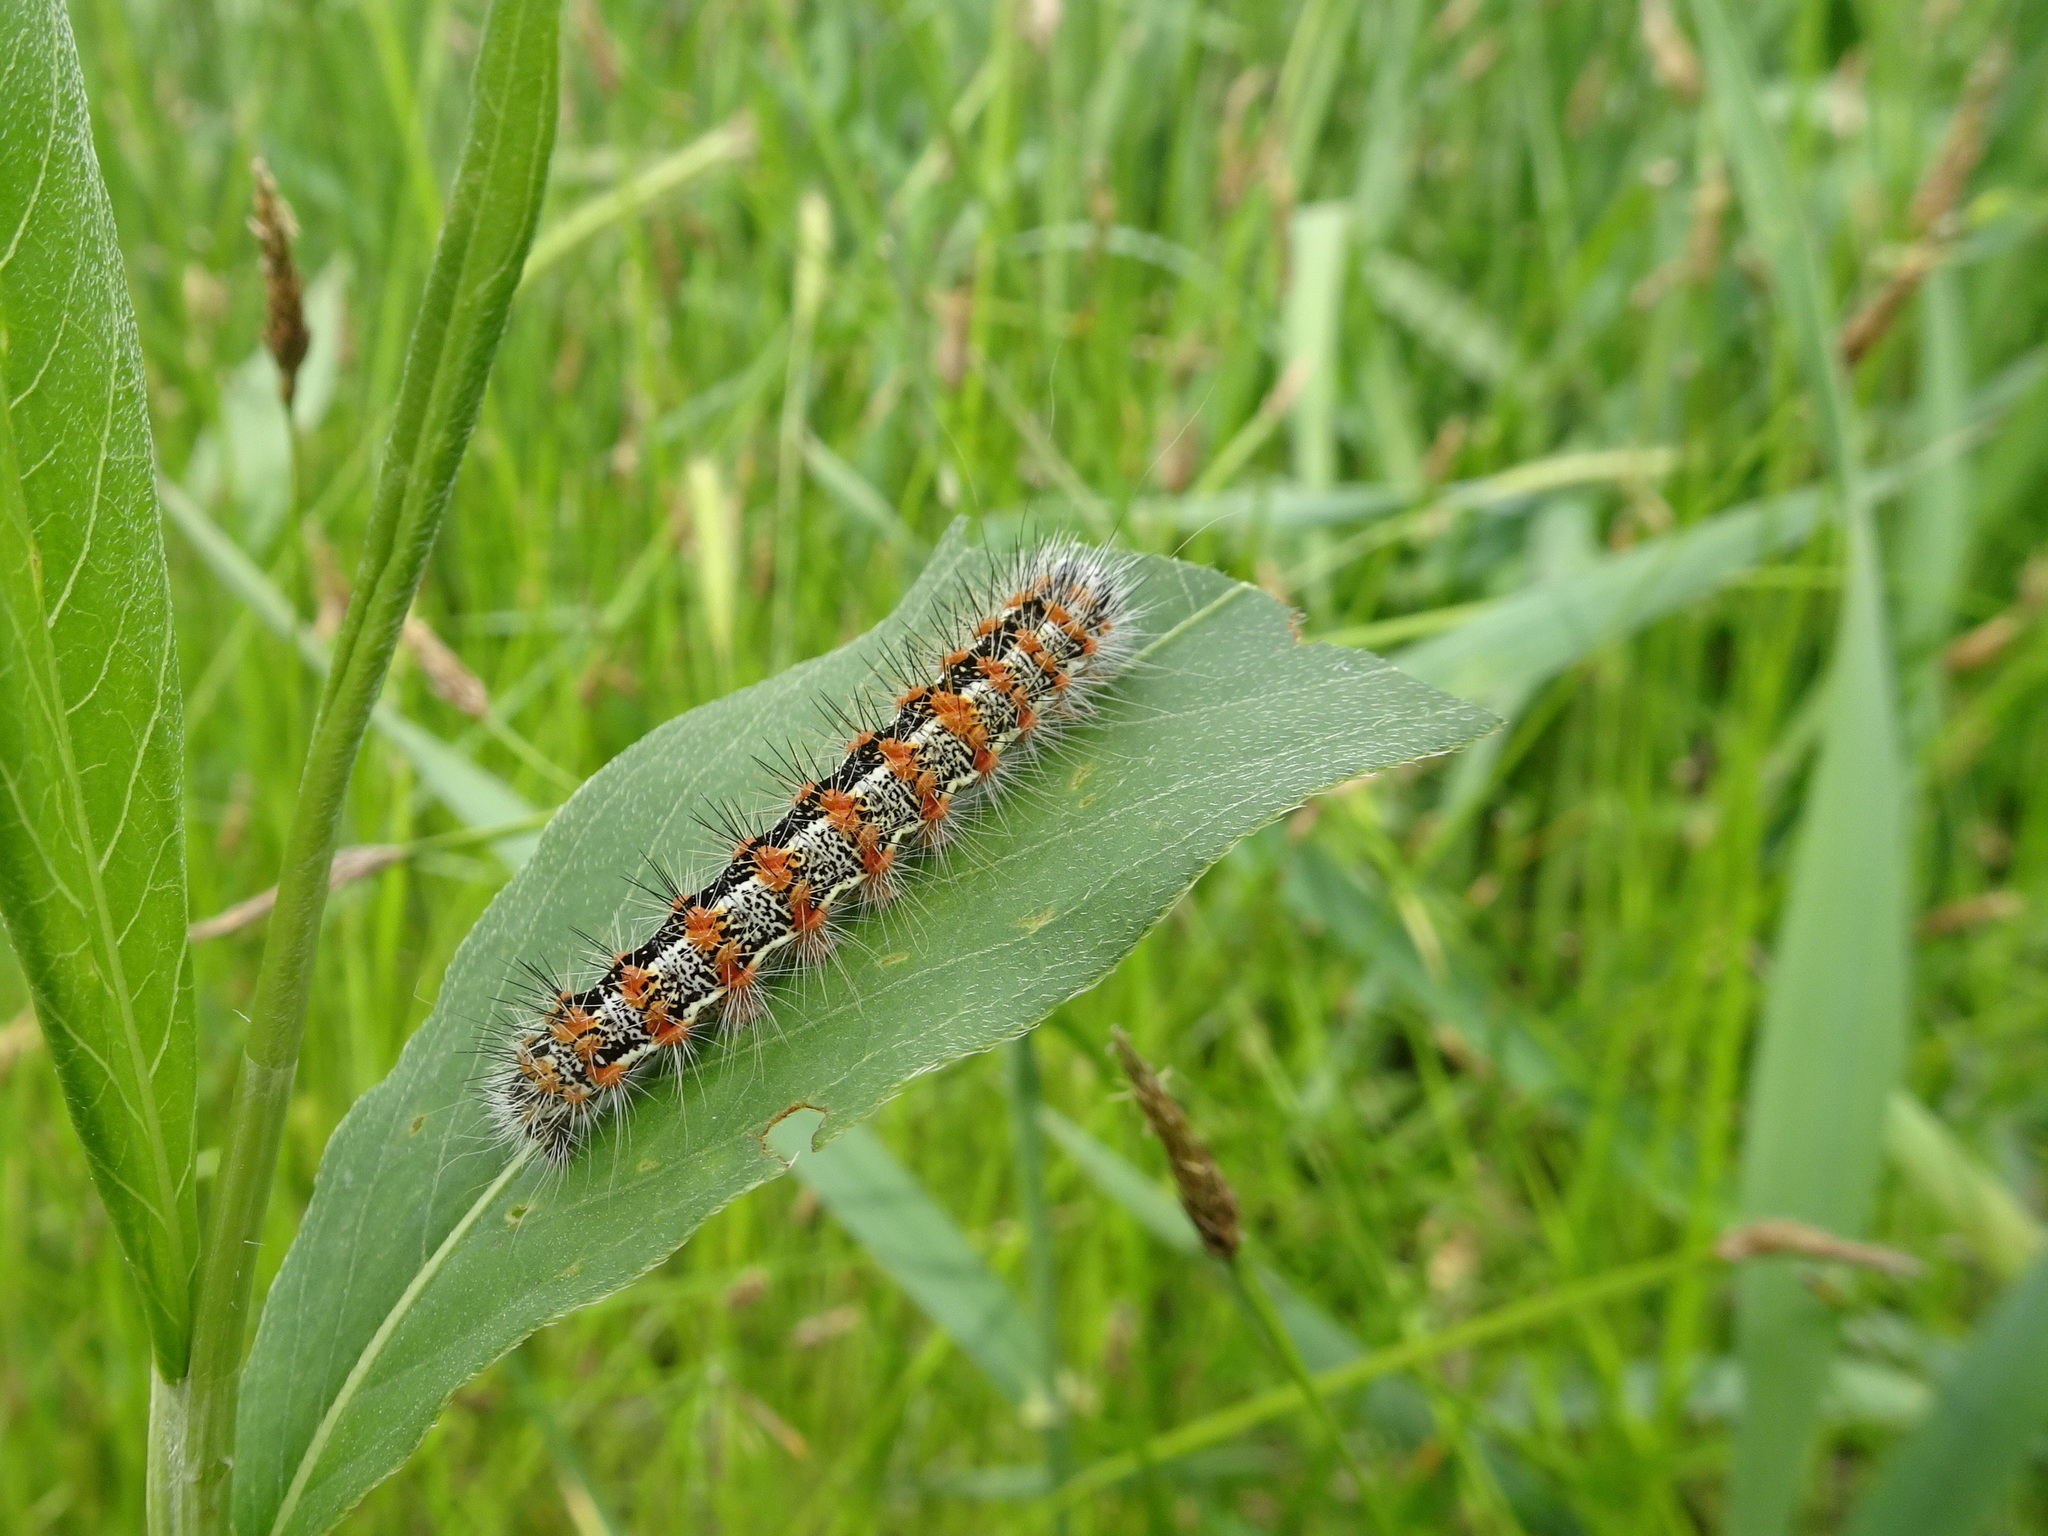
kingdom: Animalia
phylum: Arthropoda
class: Insecta
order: Lepidoptera
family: Noctuidae
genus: Acronicta
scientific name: Acronicta insularis
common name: Henry's marsh moth
